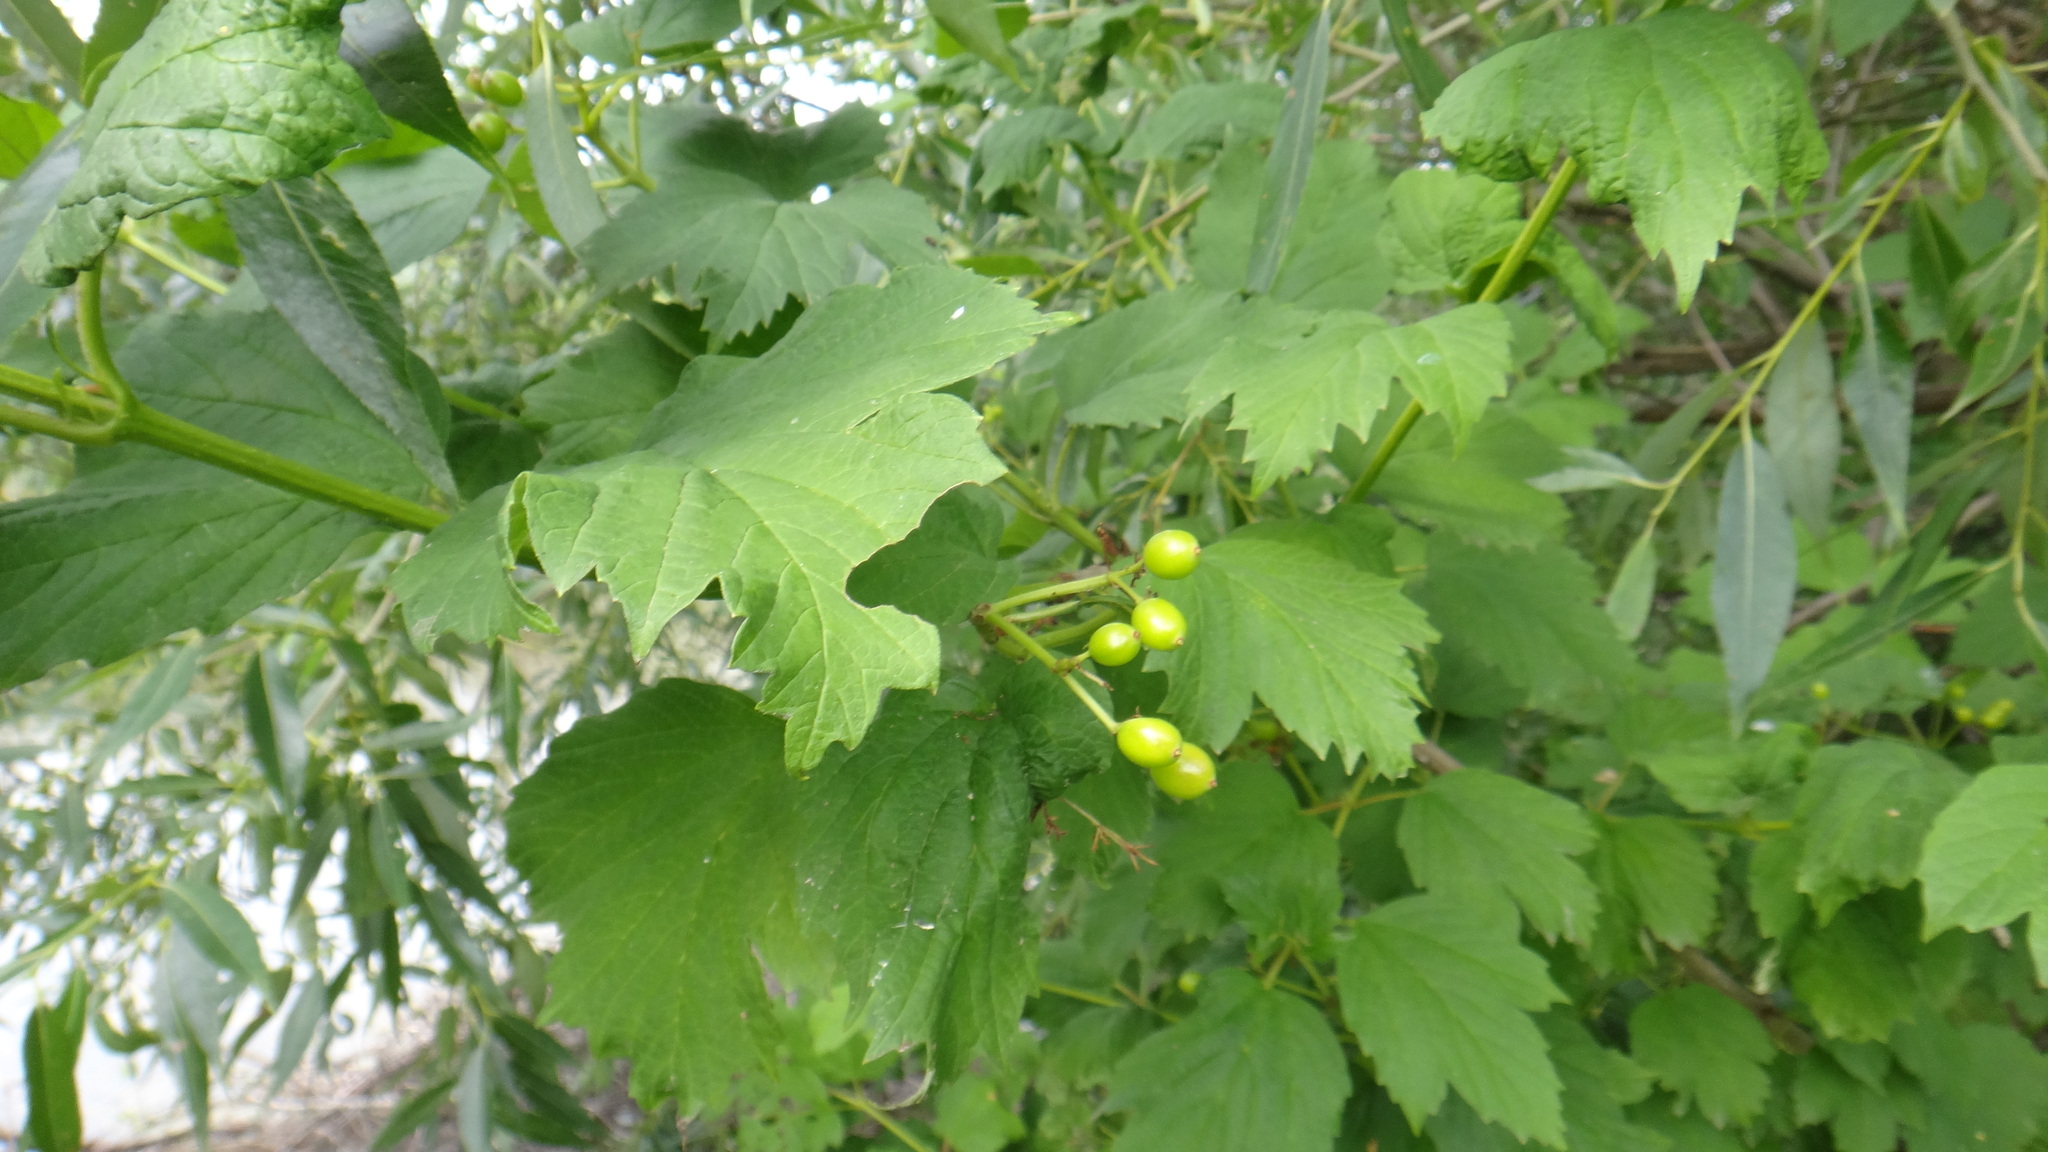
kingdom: Plantae
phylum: Tracheophyta
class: Magnoliopsida
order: Dipsacales
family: Viburnaceae
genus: Viburnum
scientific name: Viburnum opulus
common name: Guelder-rose
